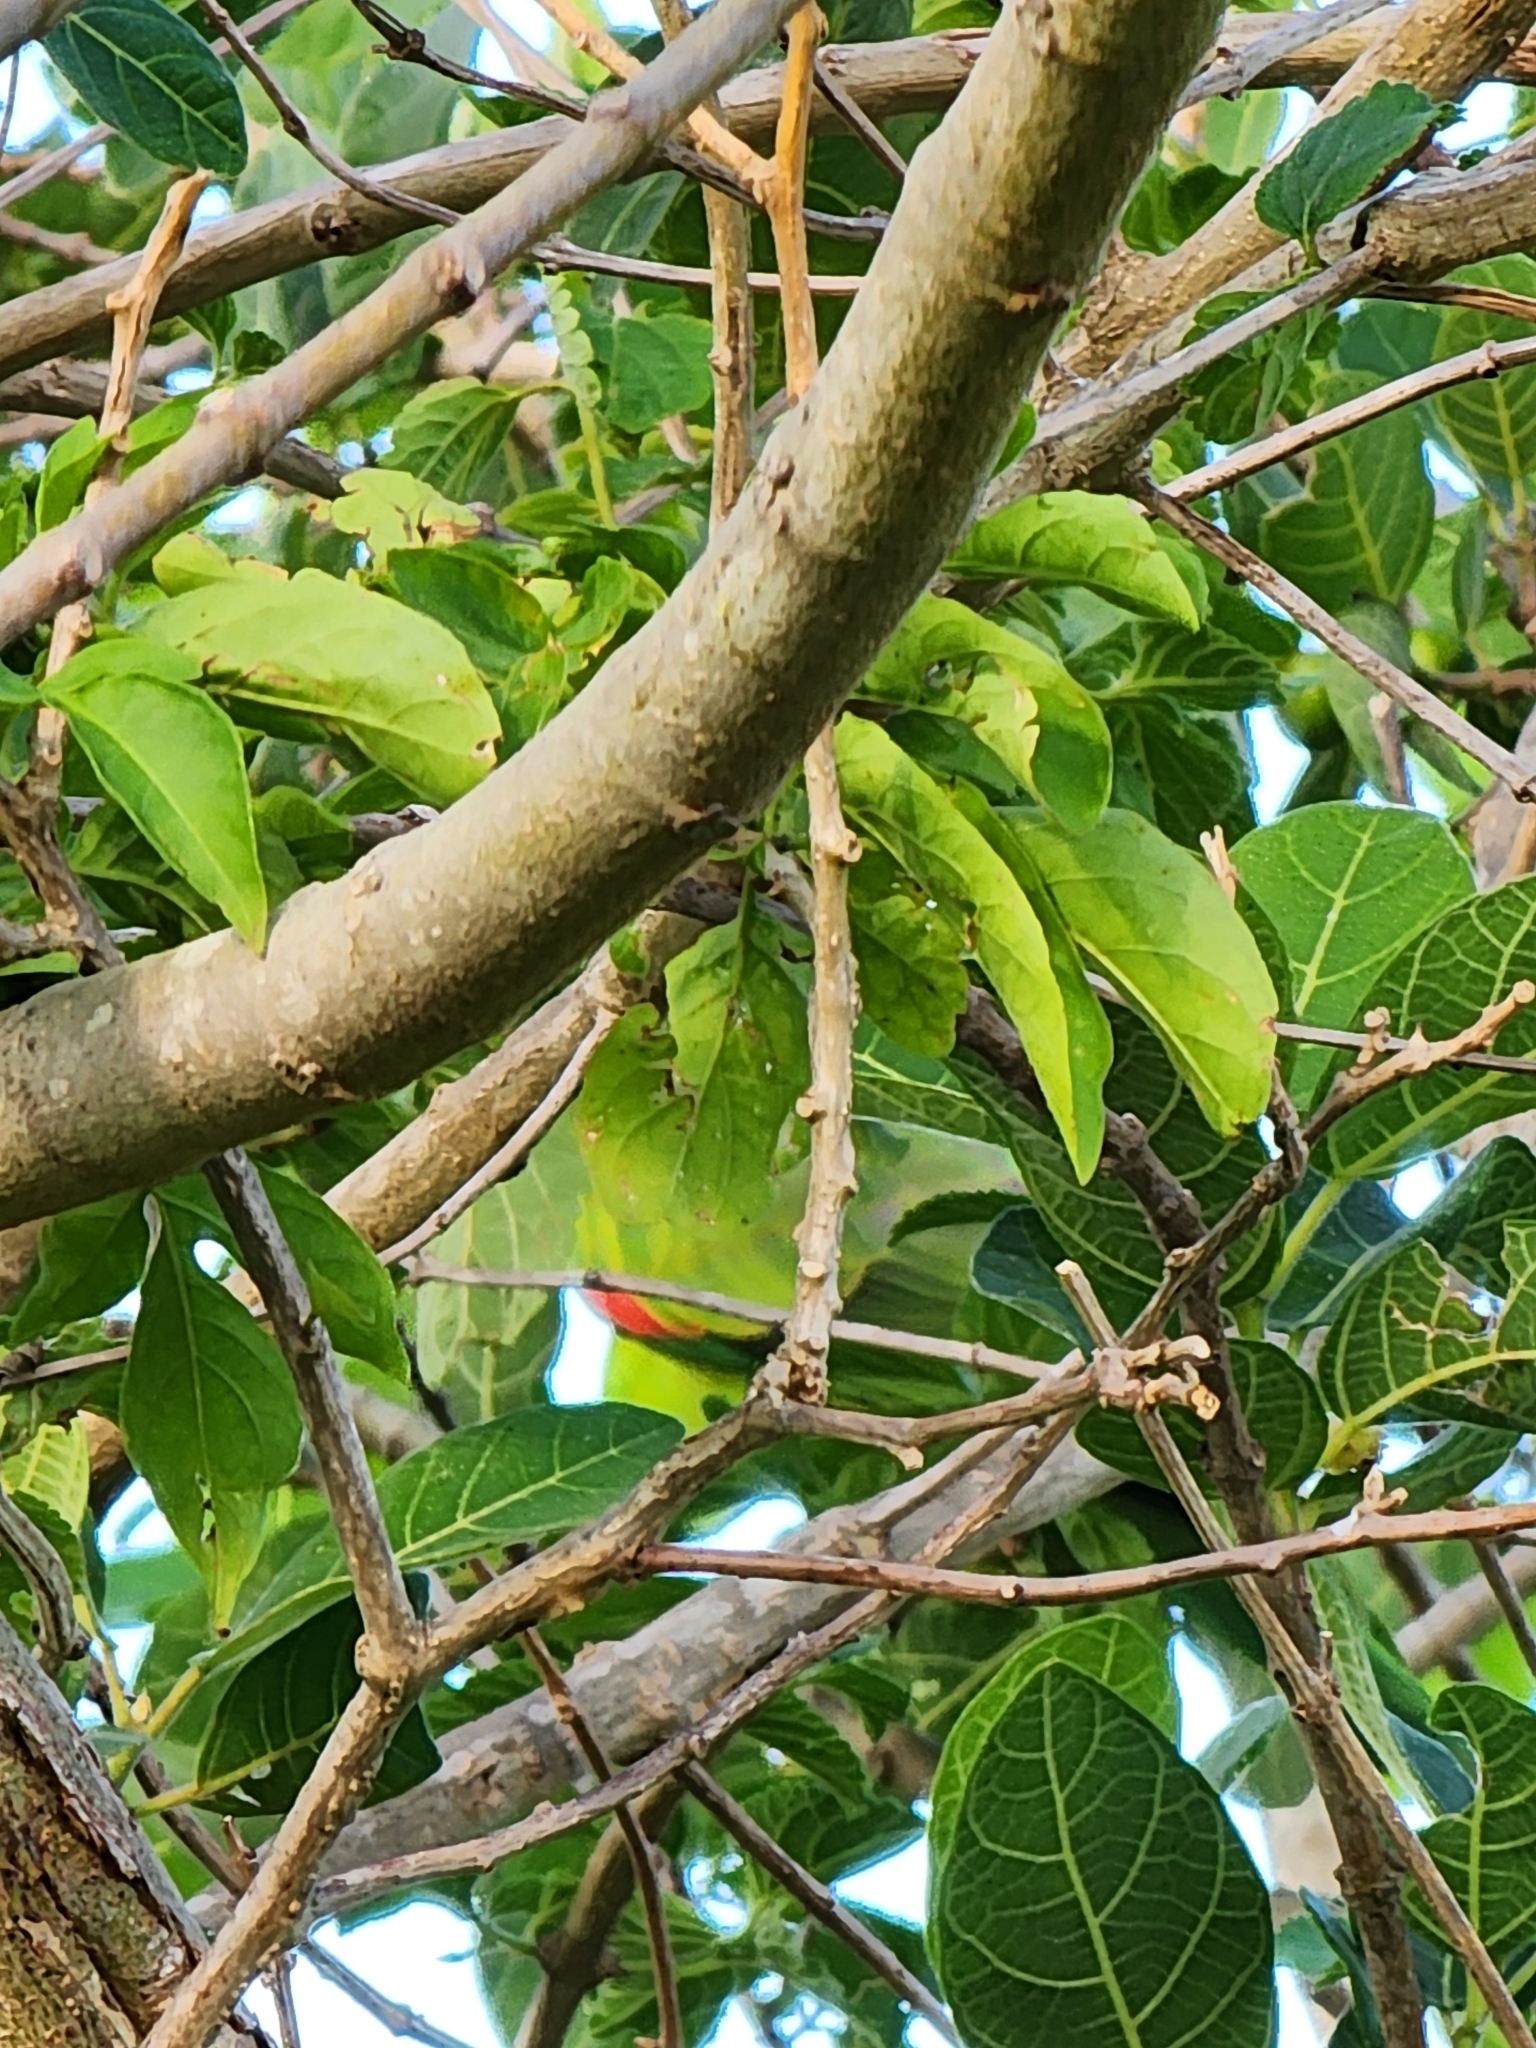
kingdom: Animalia
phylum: Chordata
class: Aves
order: Psittaciformes
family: Psittacidae
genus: Aprosmictus
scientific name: Aprosmictus erythropterus
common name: Red-winged parrot
